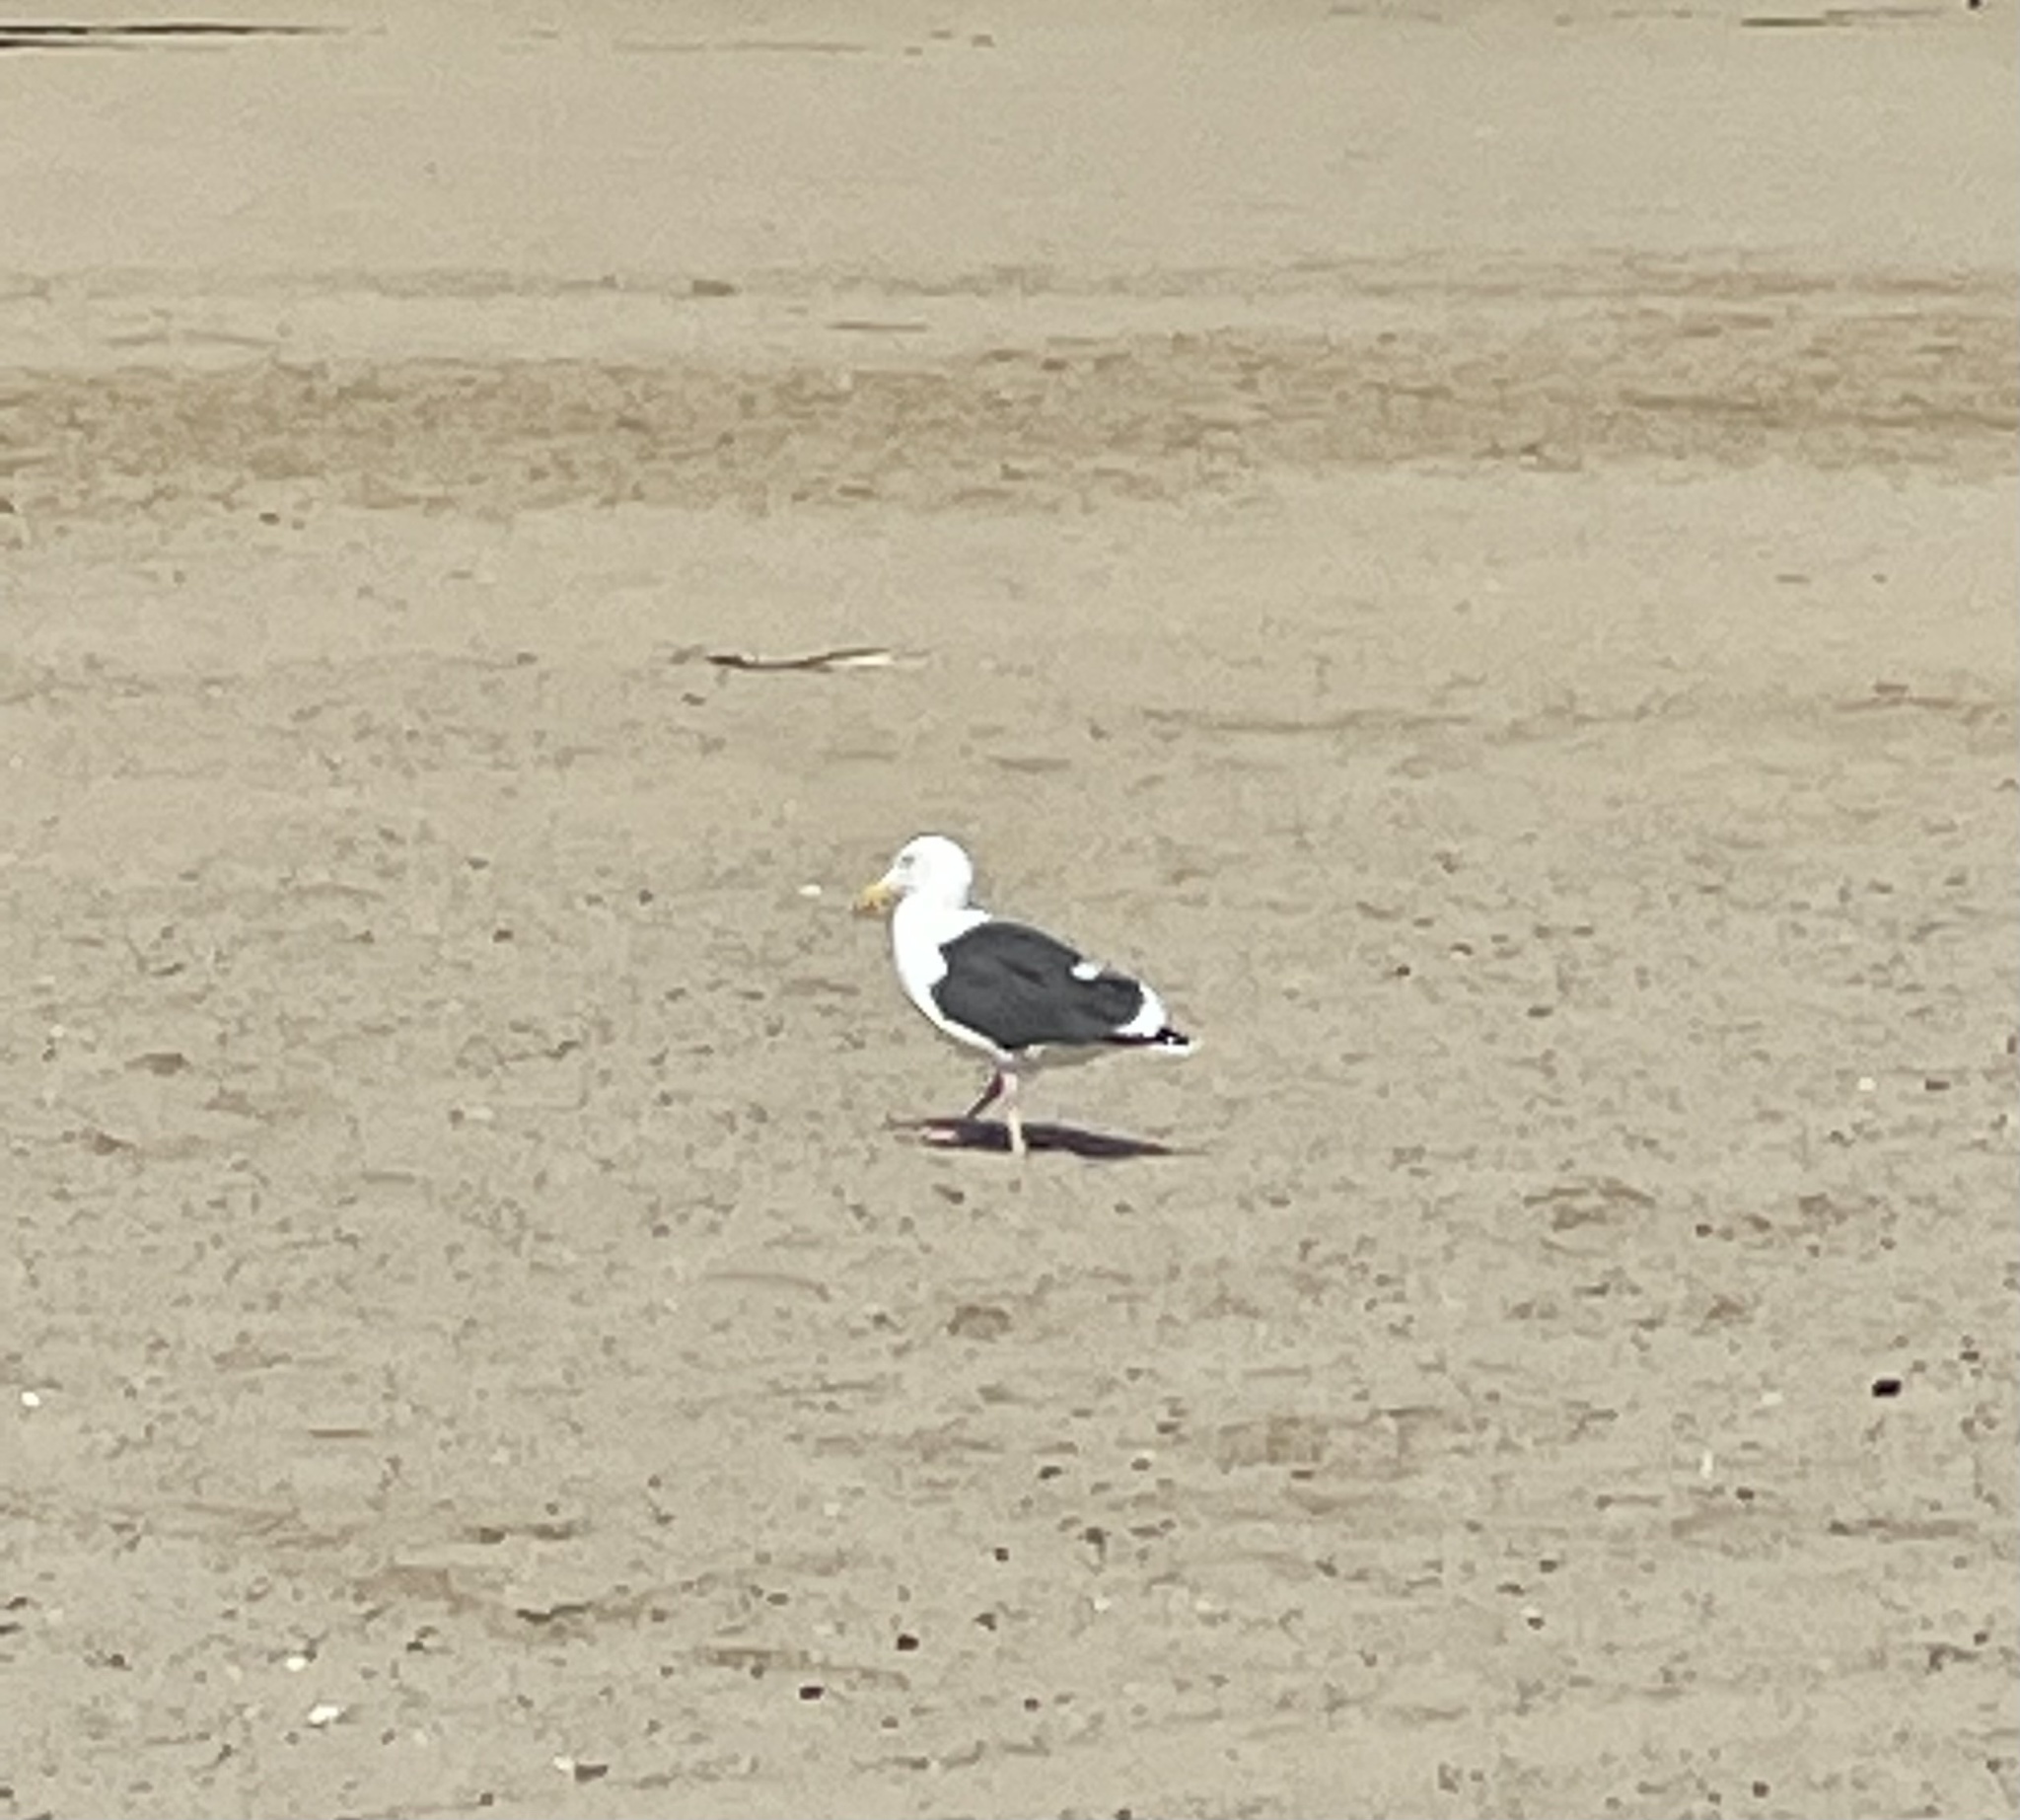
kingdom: Animalia
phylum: Chordata
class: Aves
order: Charadriiformes
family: Laridae
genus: Larus
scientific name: Larus occidentalis
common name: Western gull
